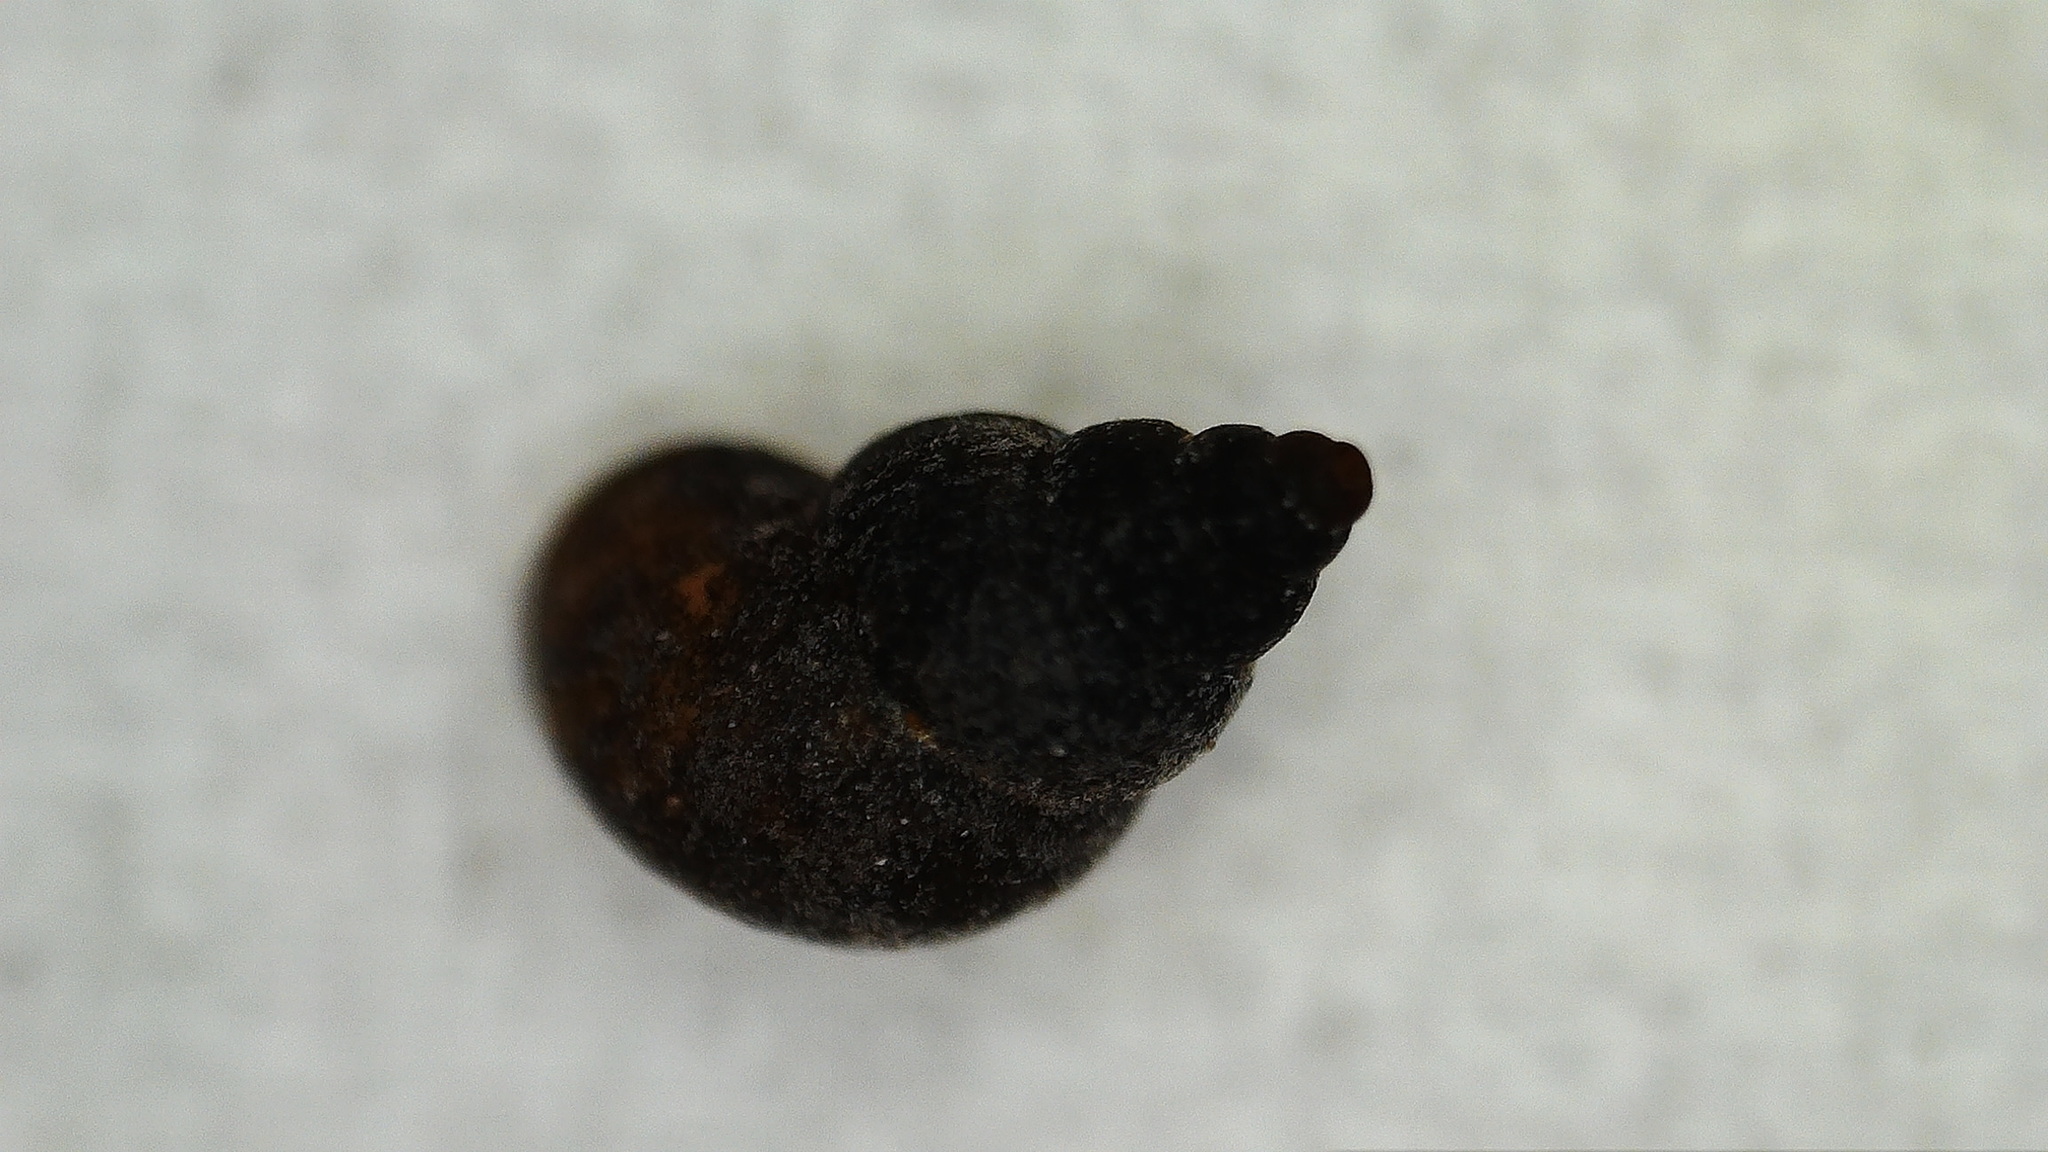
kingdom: Animalia
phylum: Mollusca
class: Gastropoda
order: Littorinimorpha
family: Tateidae
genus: Potamopyrgus
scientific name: Potamopyrgus antipodarum
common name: Jenkins' spire snail
